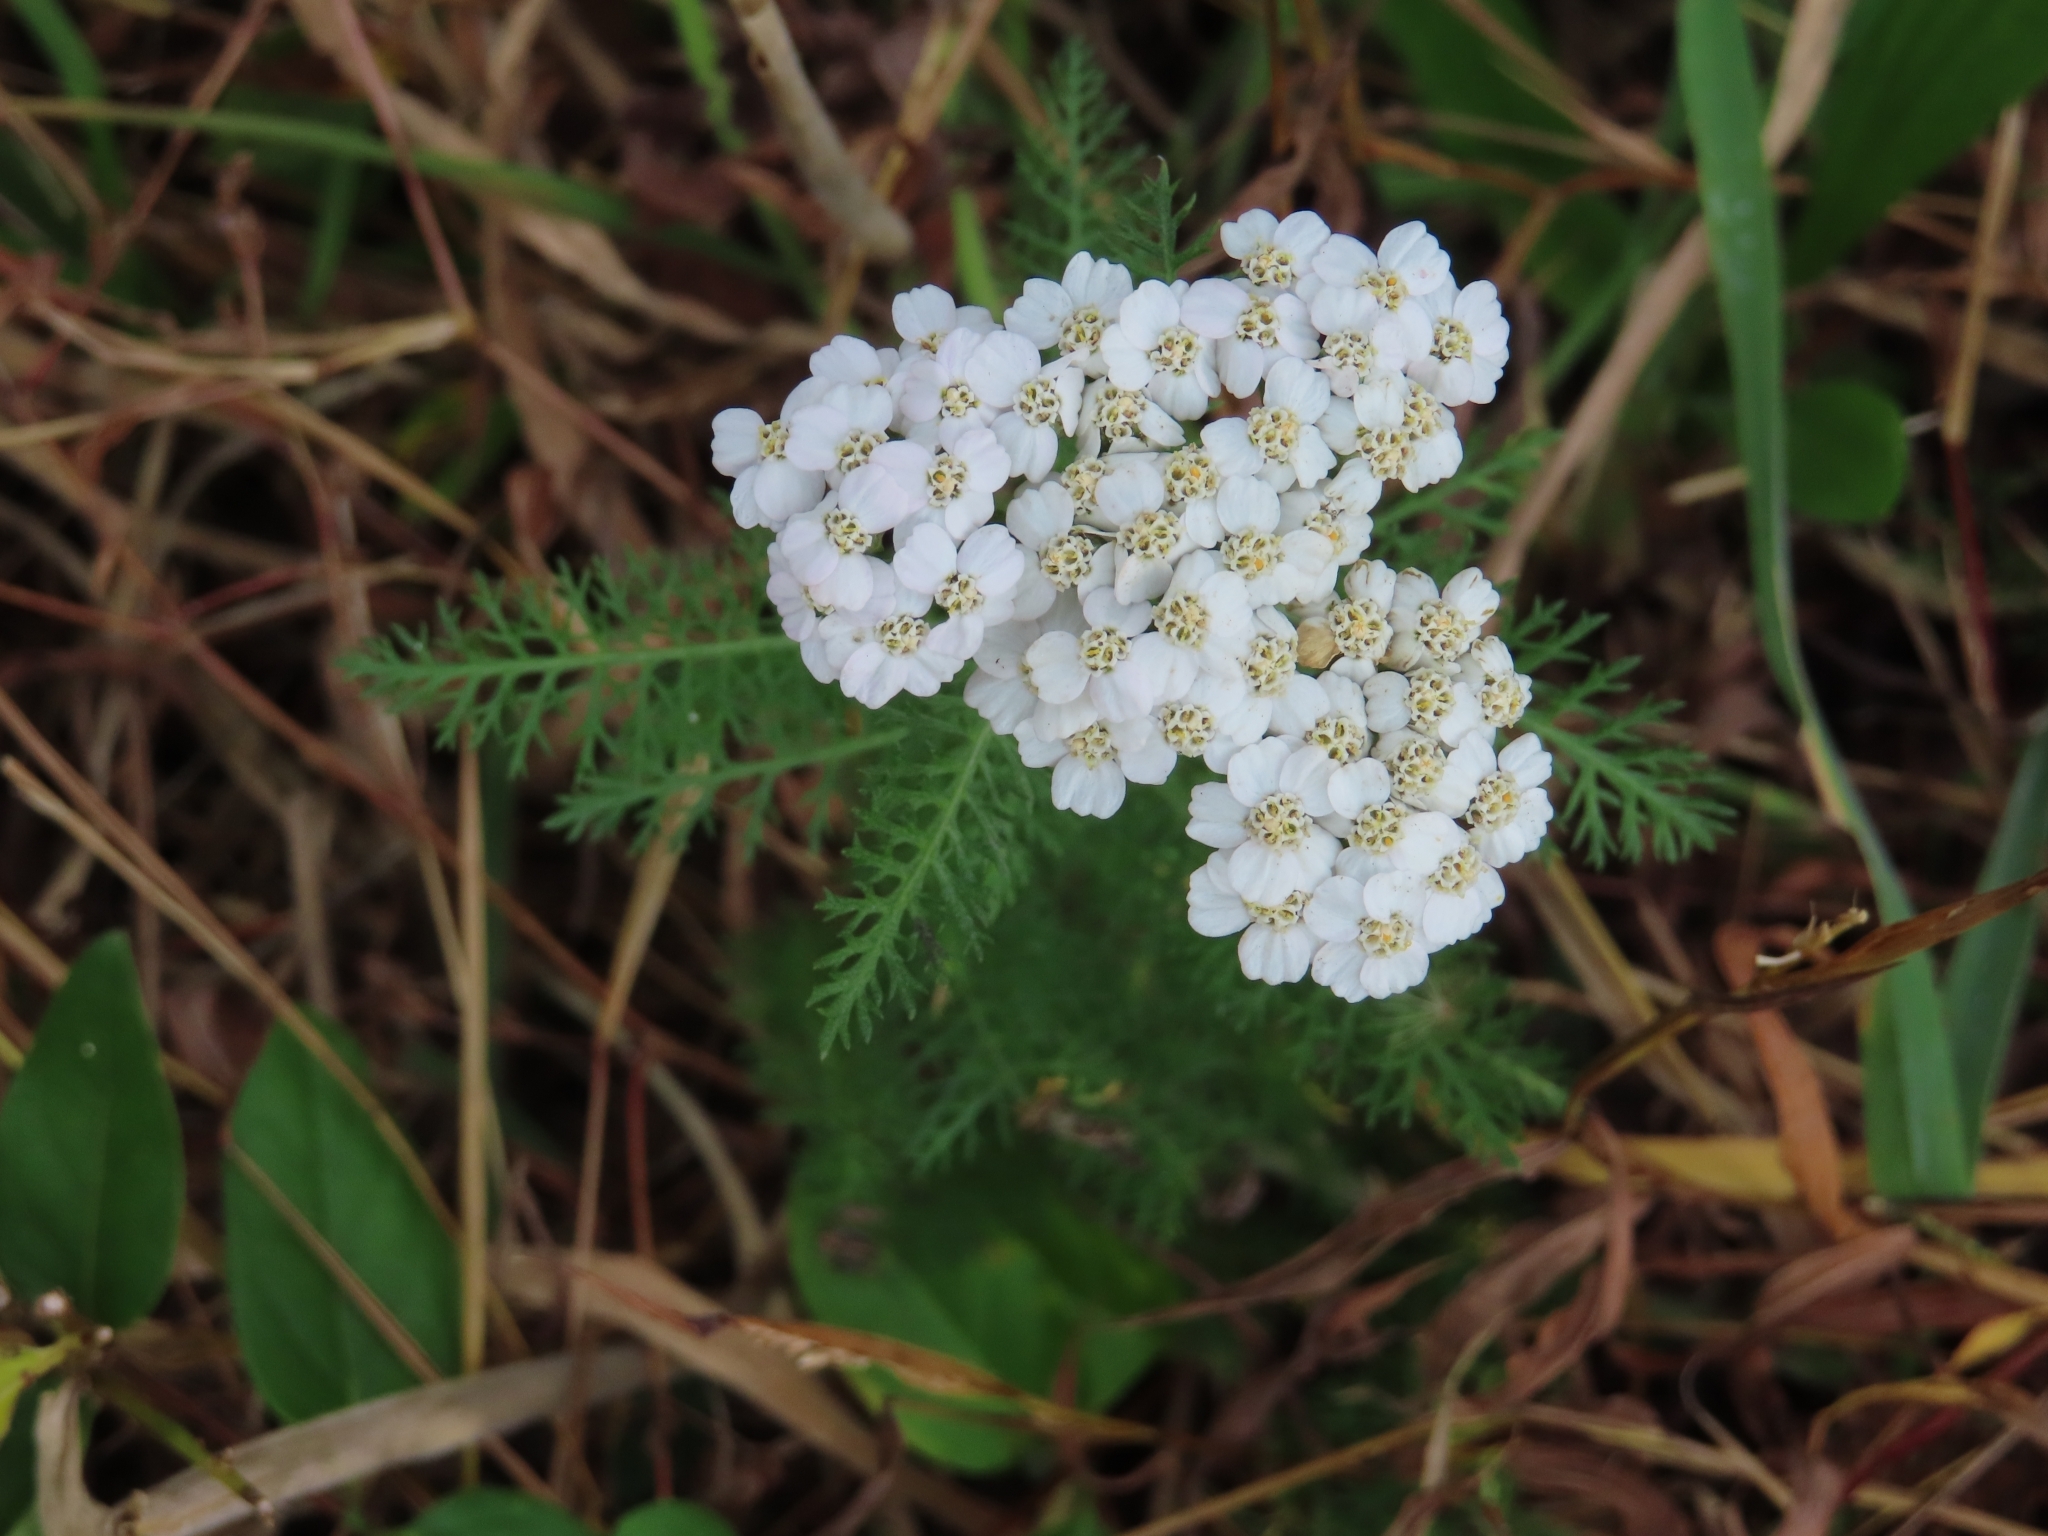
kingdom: Plantae
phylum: Tracheophyta
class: Magnoliopsida
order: Asterales
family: Asteraceae
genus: Achillea
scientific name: Achillea millefolium
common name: Yarrow
